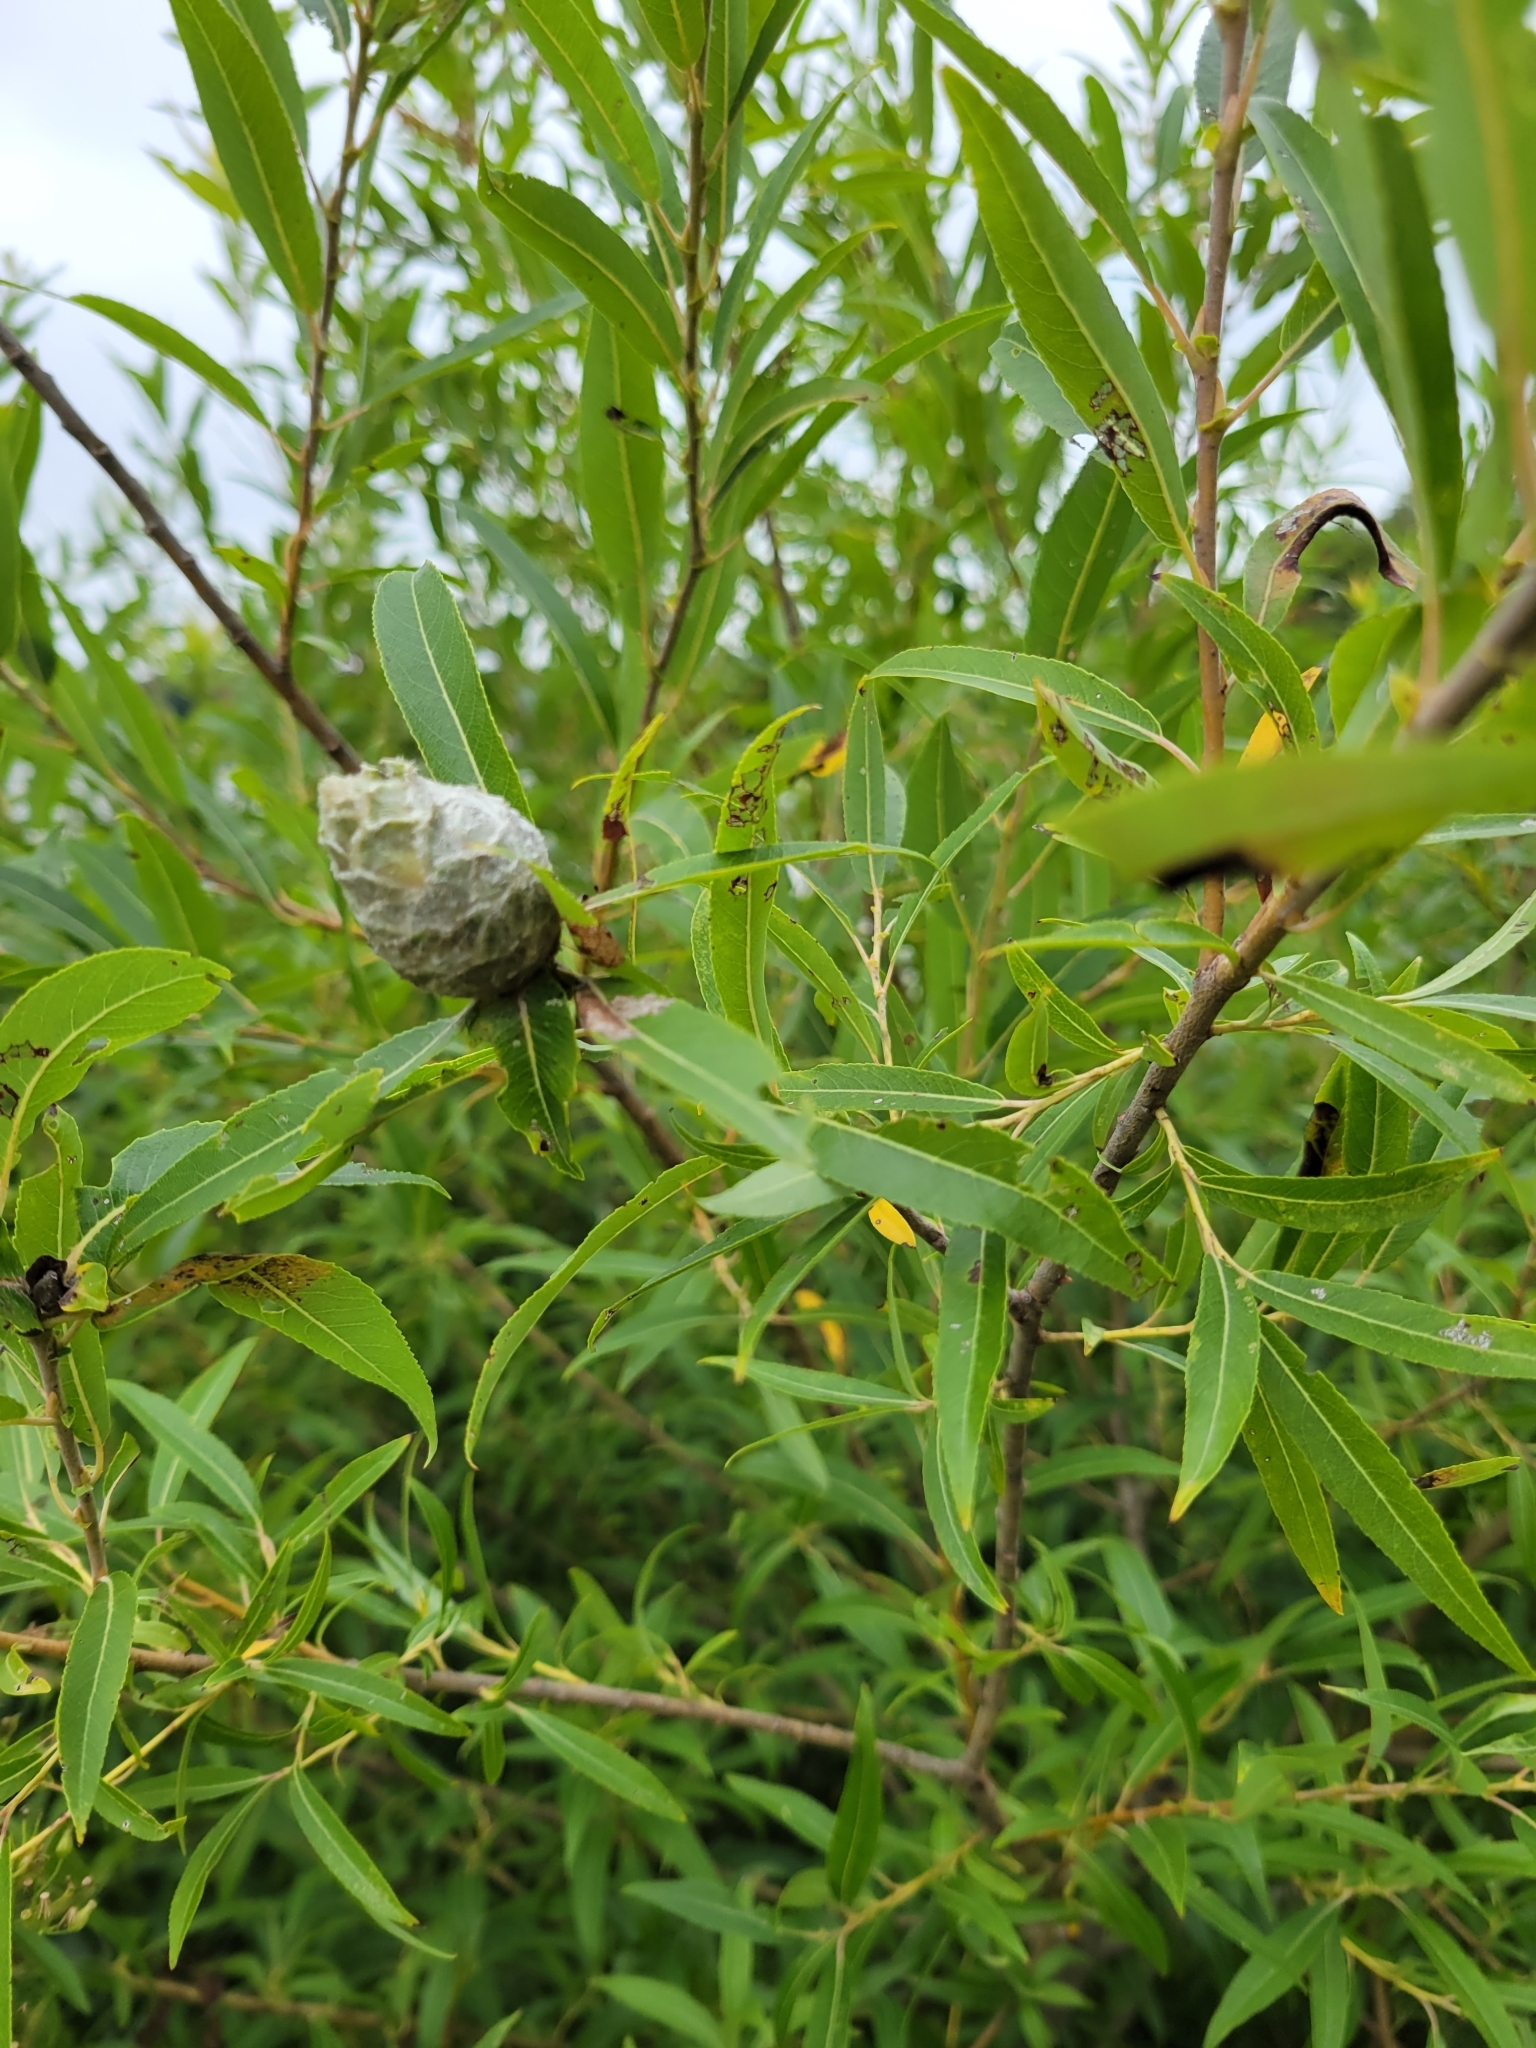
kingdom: Animalia
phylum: Arthropoda
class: Insecta
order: Diptera
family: Cecidomyiidae
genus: Rabdophaga
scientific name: Rabdophaga strobiloides
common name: Willow pinecone gall midge
